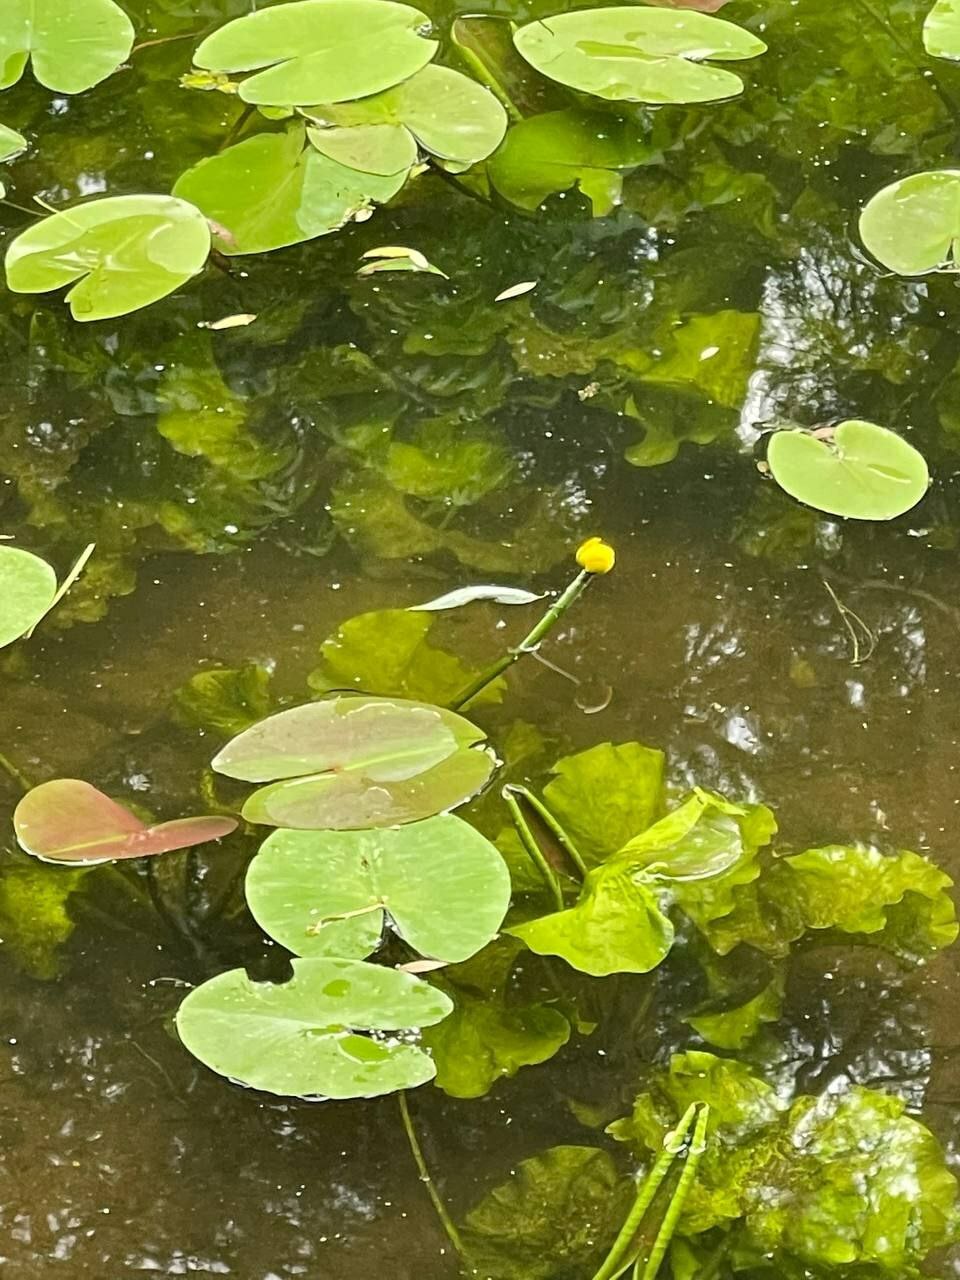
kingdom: Plantae
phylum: Tracheophyta
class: Magnoliopsida
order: Nymphaeales
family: Nymphaeaceae
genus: Nuphar
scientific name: Nuphar lutea
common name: Yellow water-lily
